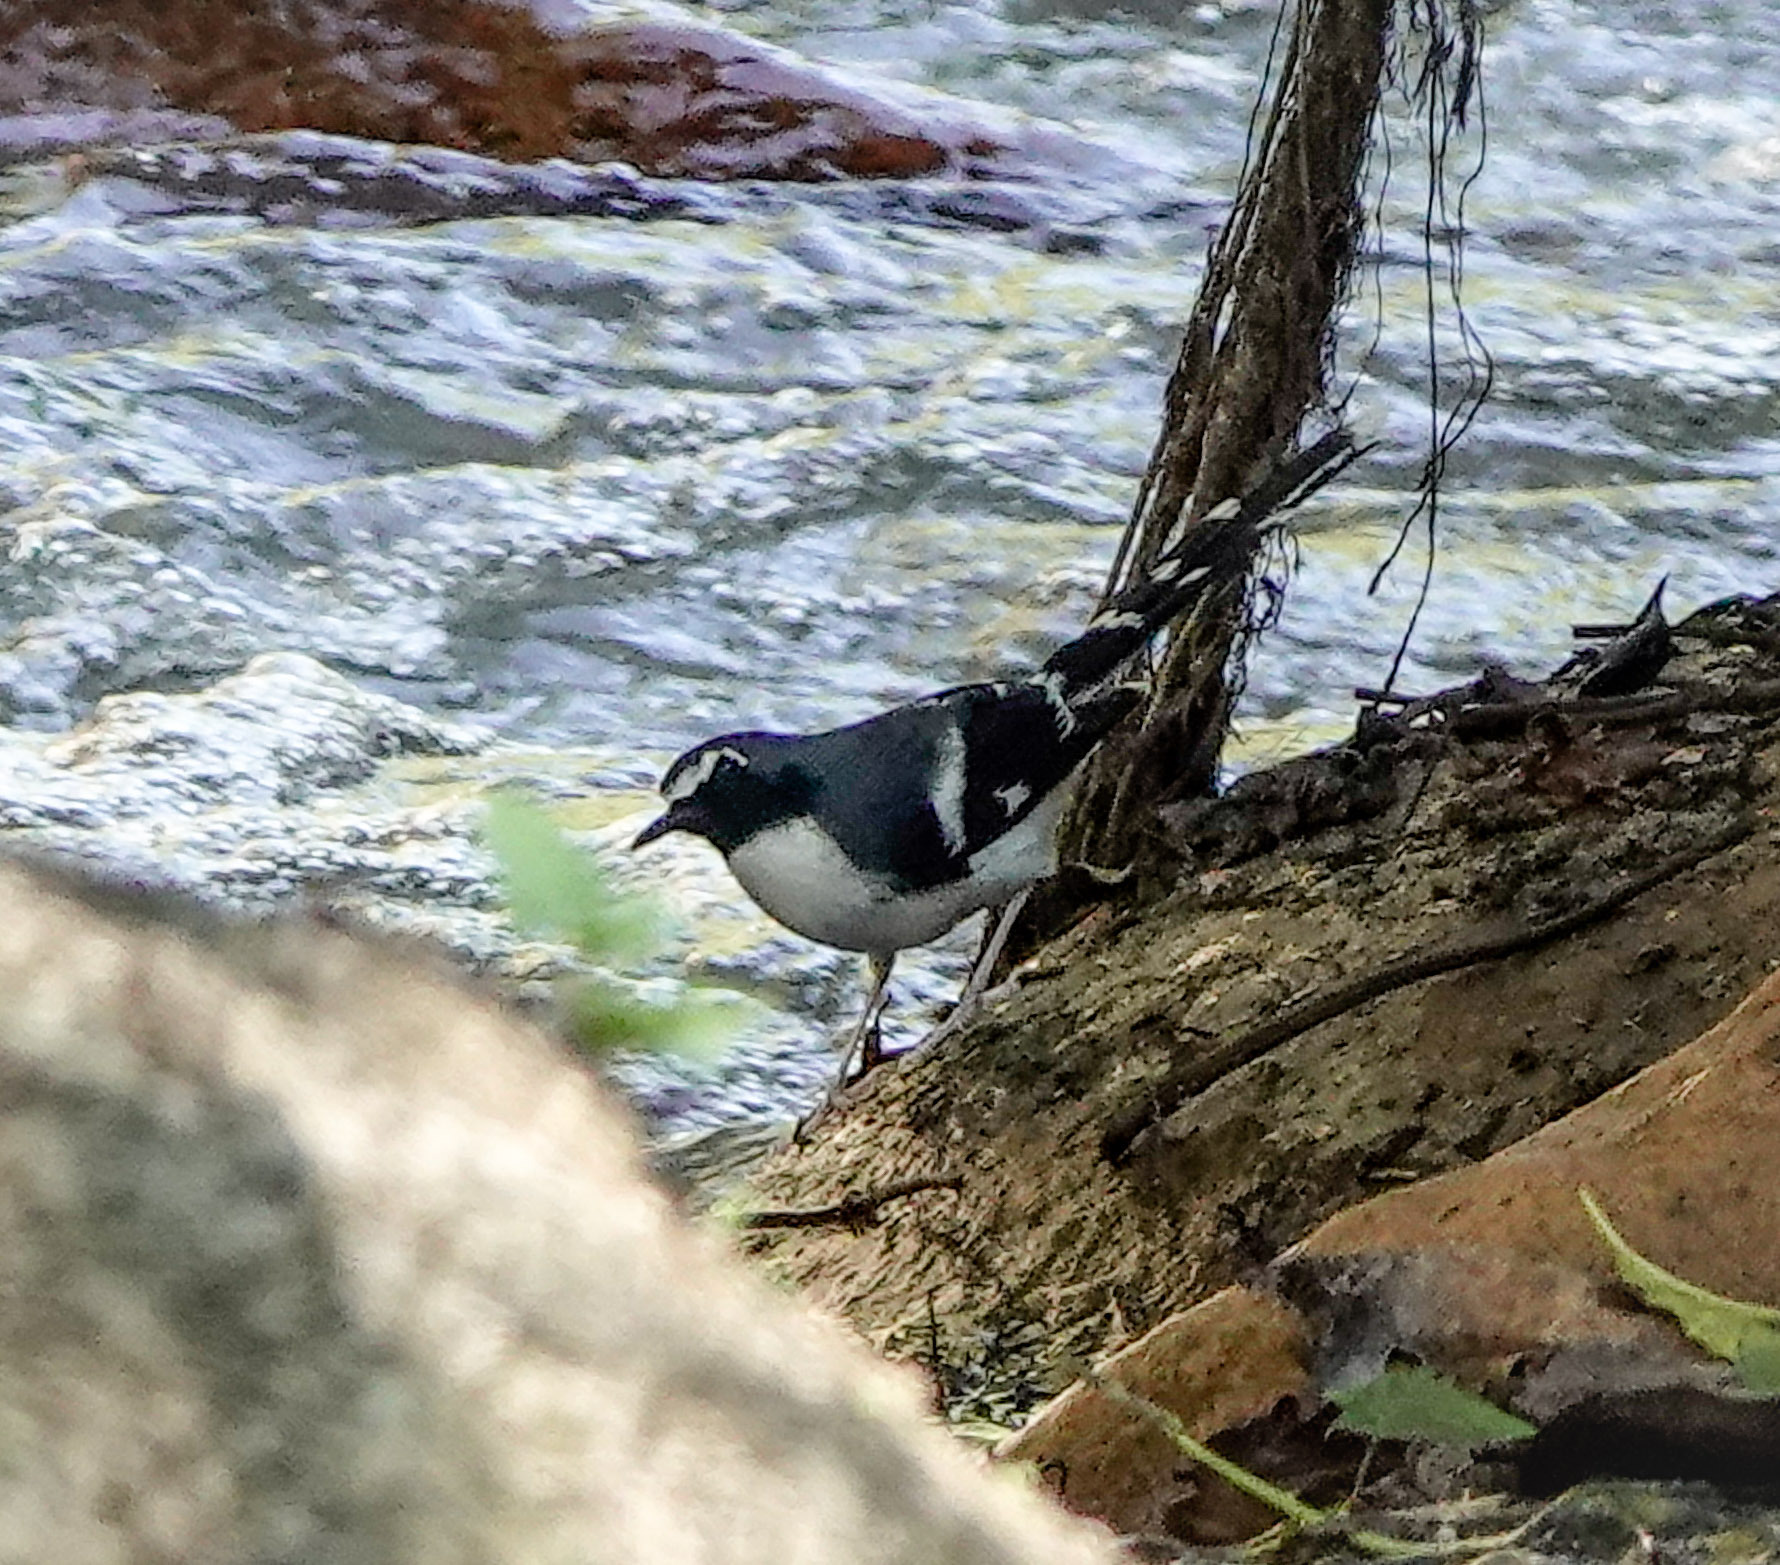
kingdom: Animalia
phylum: Chordata
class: Aves
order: Passeriformes
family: Muscicapidae
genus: Enicurus
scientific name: Enicurus schistaceus
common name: Slaty-backed forktail
